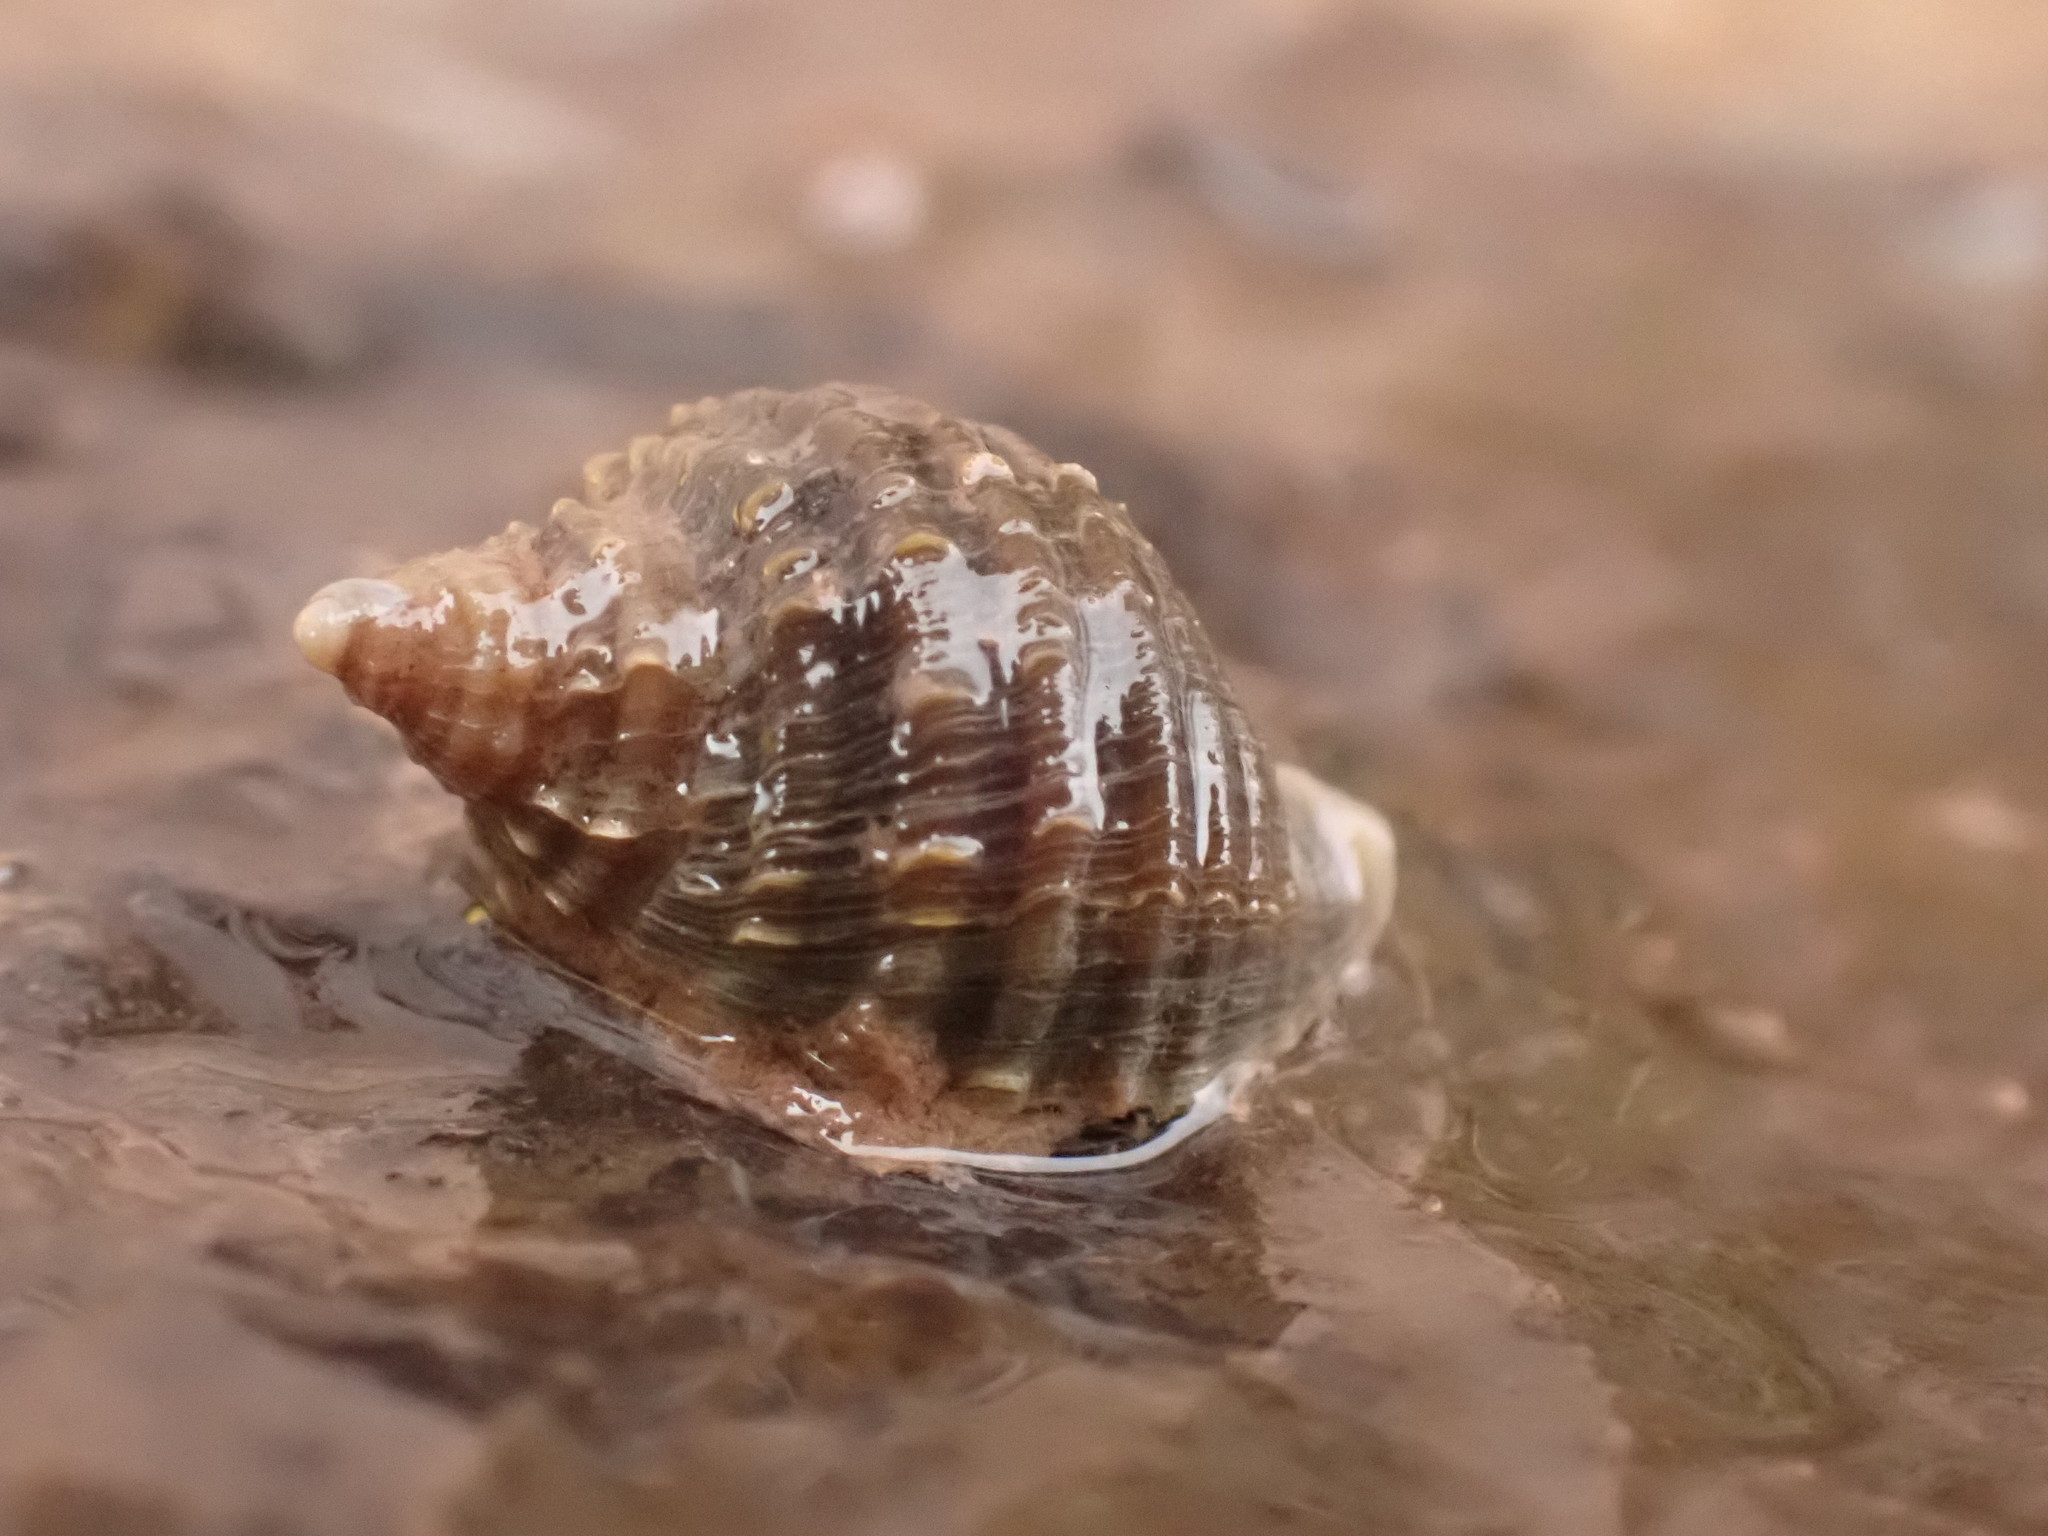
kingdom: Animalia
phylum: Mollusca
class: Gastropoda
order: Neogastropoda
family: Muricidae
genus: Nucella
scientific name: Nucella lapillus
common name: Dog whelk
